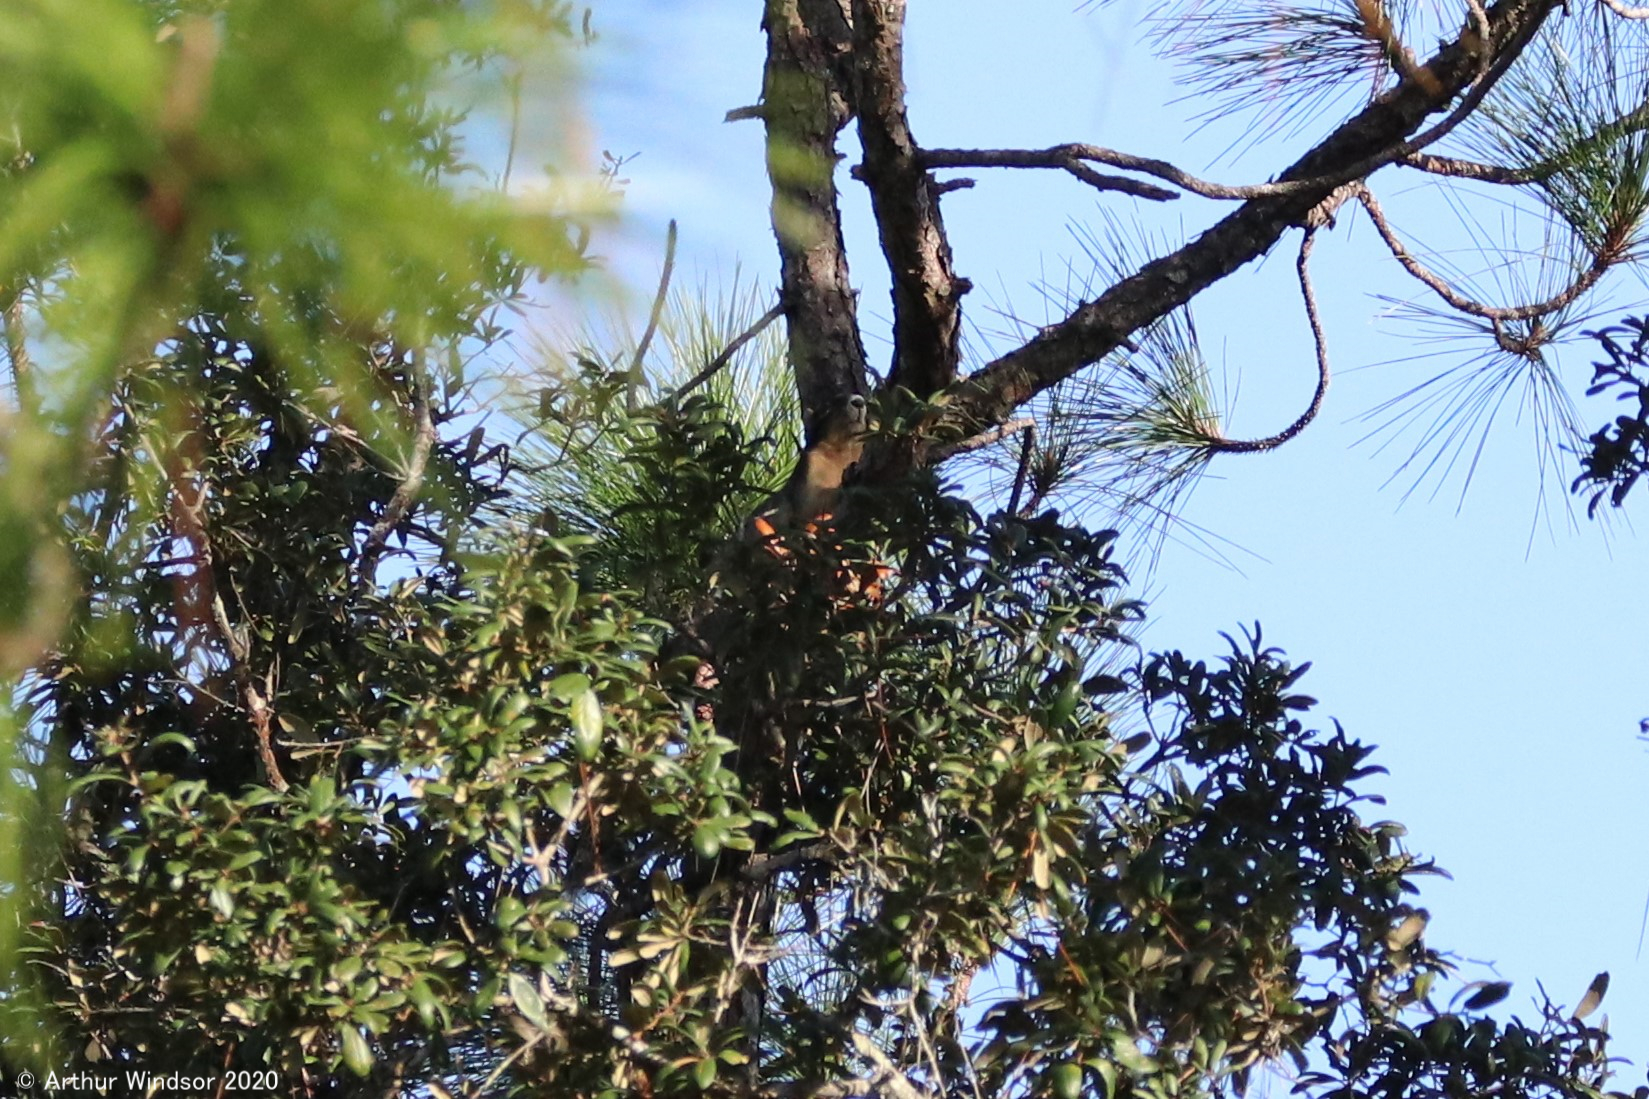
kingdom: Animalia
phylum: Chordata
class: Mammalia
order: Rodentia
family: Sciuridae
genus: Sciurus
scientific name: Sciurus niger
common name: Fox squirrel
